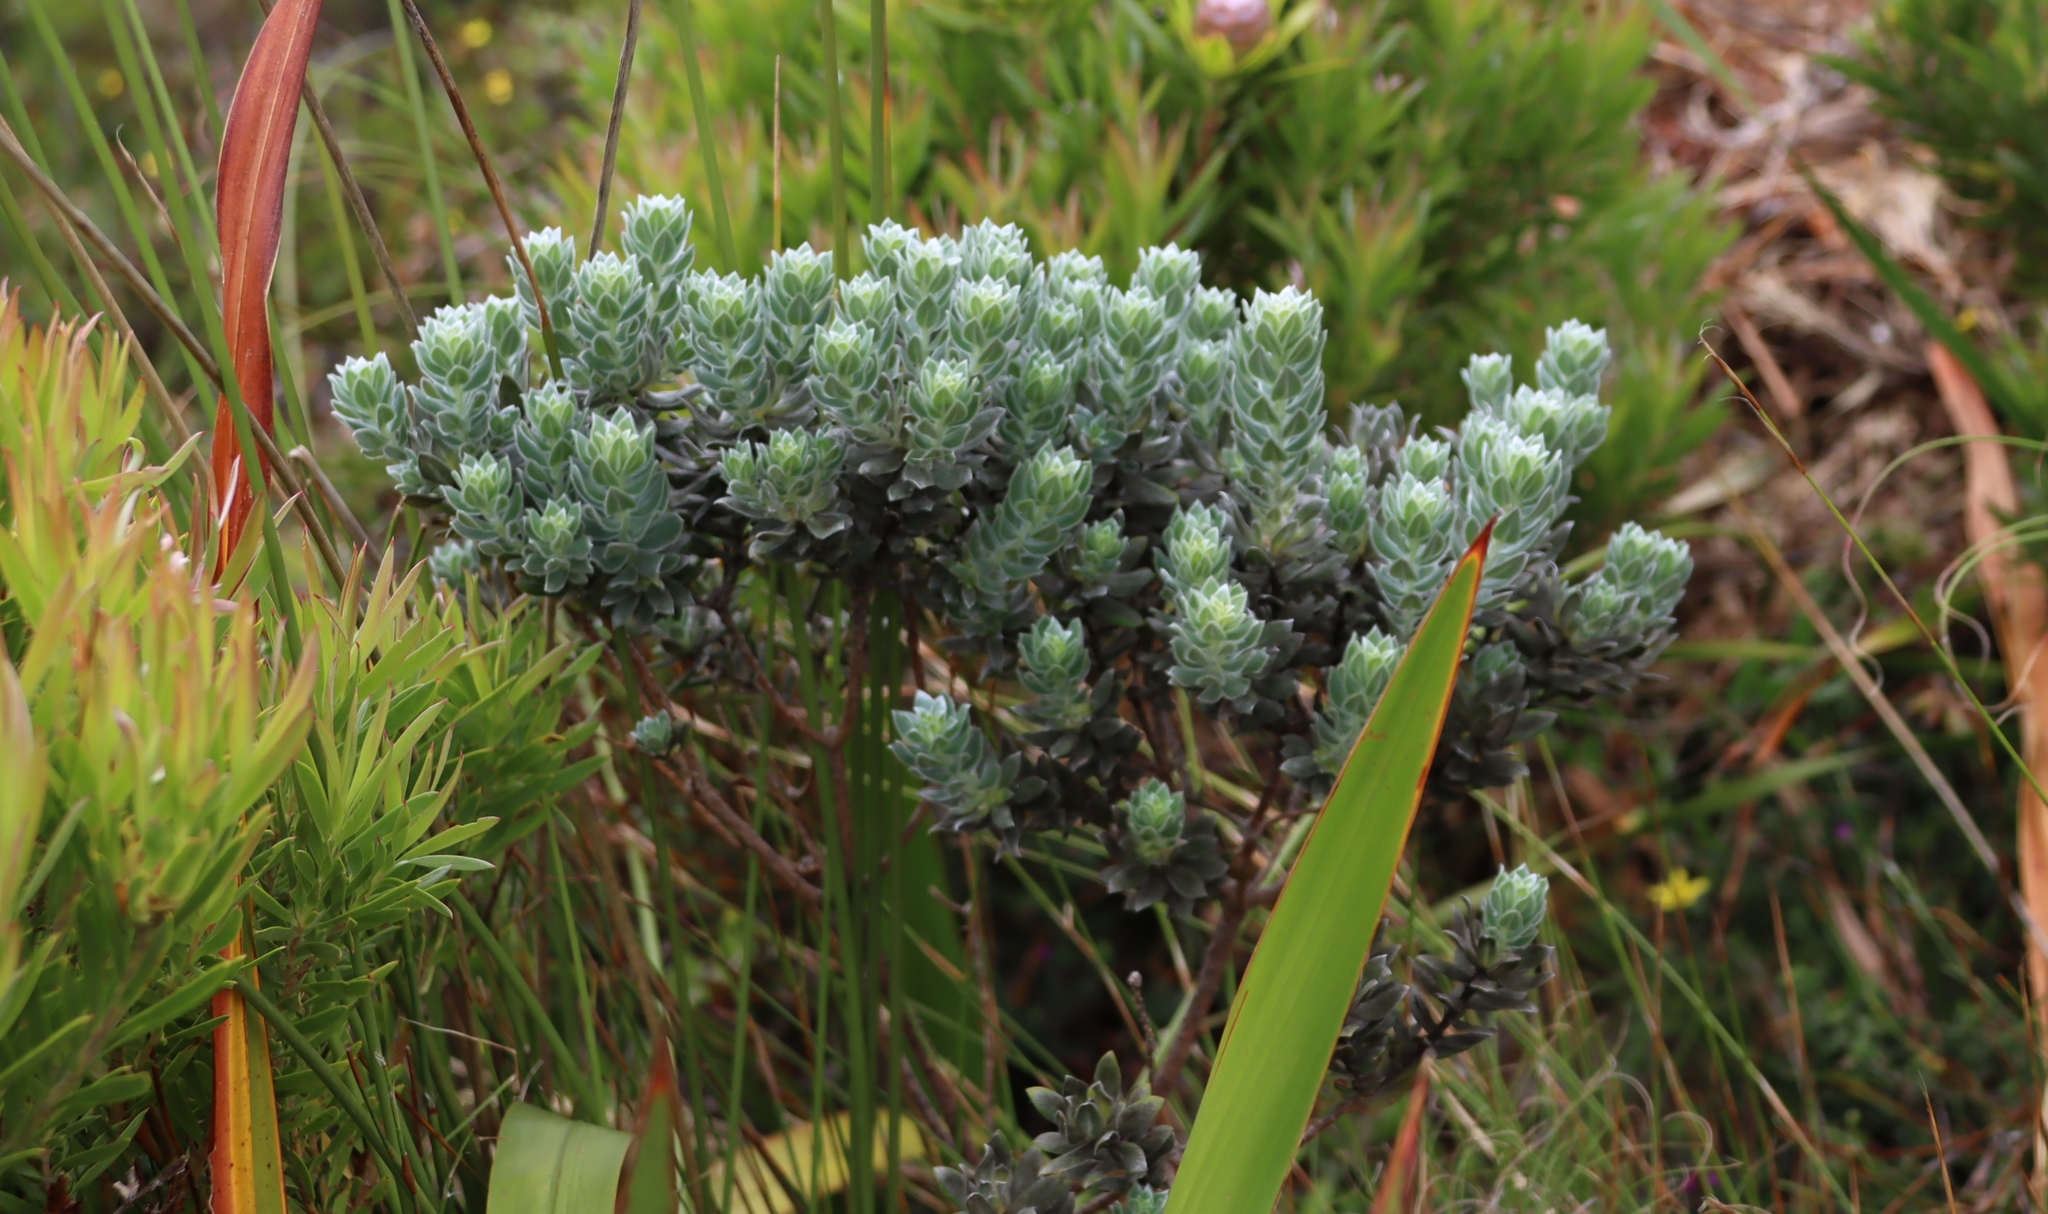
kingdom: Plantae
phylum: Tracheophyta
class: Magnoliopsida
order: Fabales
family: Fabaceae
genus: Xiphotheca
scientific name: Xiphotheca fruticosa
